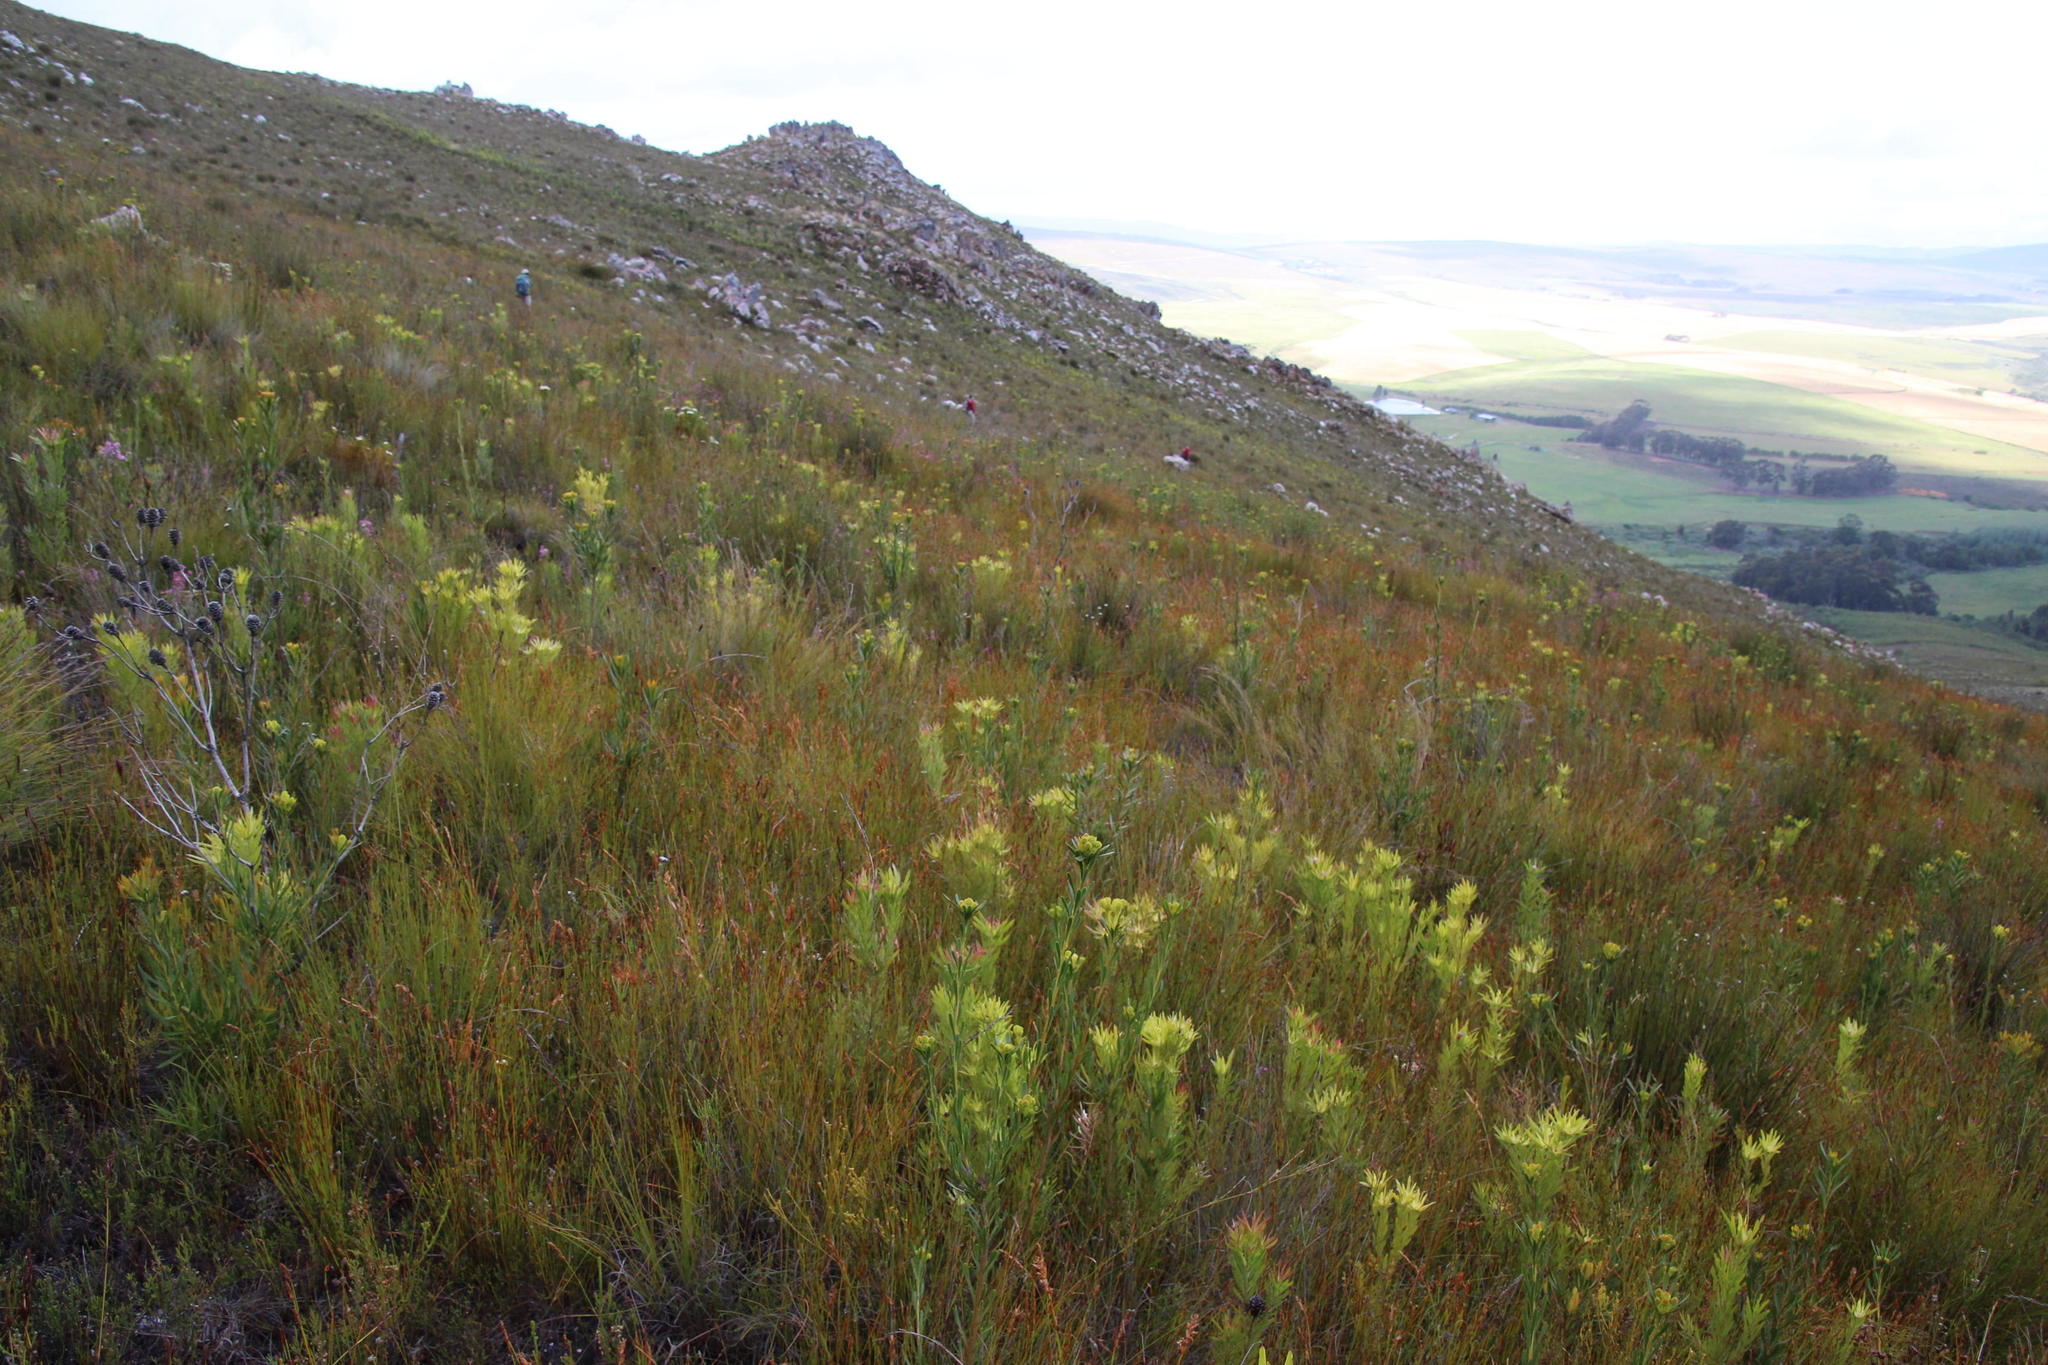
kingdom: Plantae
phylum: Tracheophyta
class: Magnoliopsida
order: Proteales
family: Proteaceae
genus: Leucadendron
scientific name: Leucadendron xanthoconus
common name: Sickle-leaf conebush
